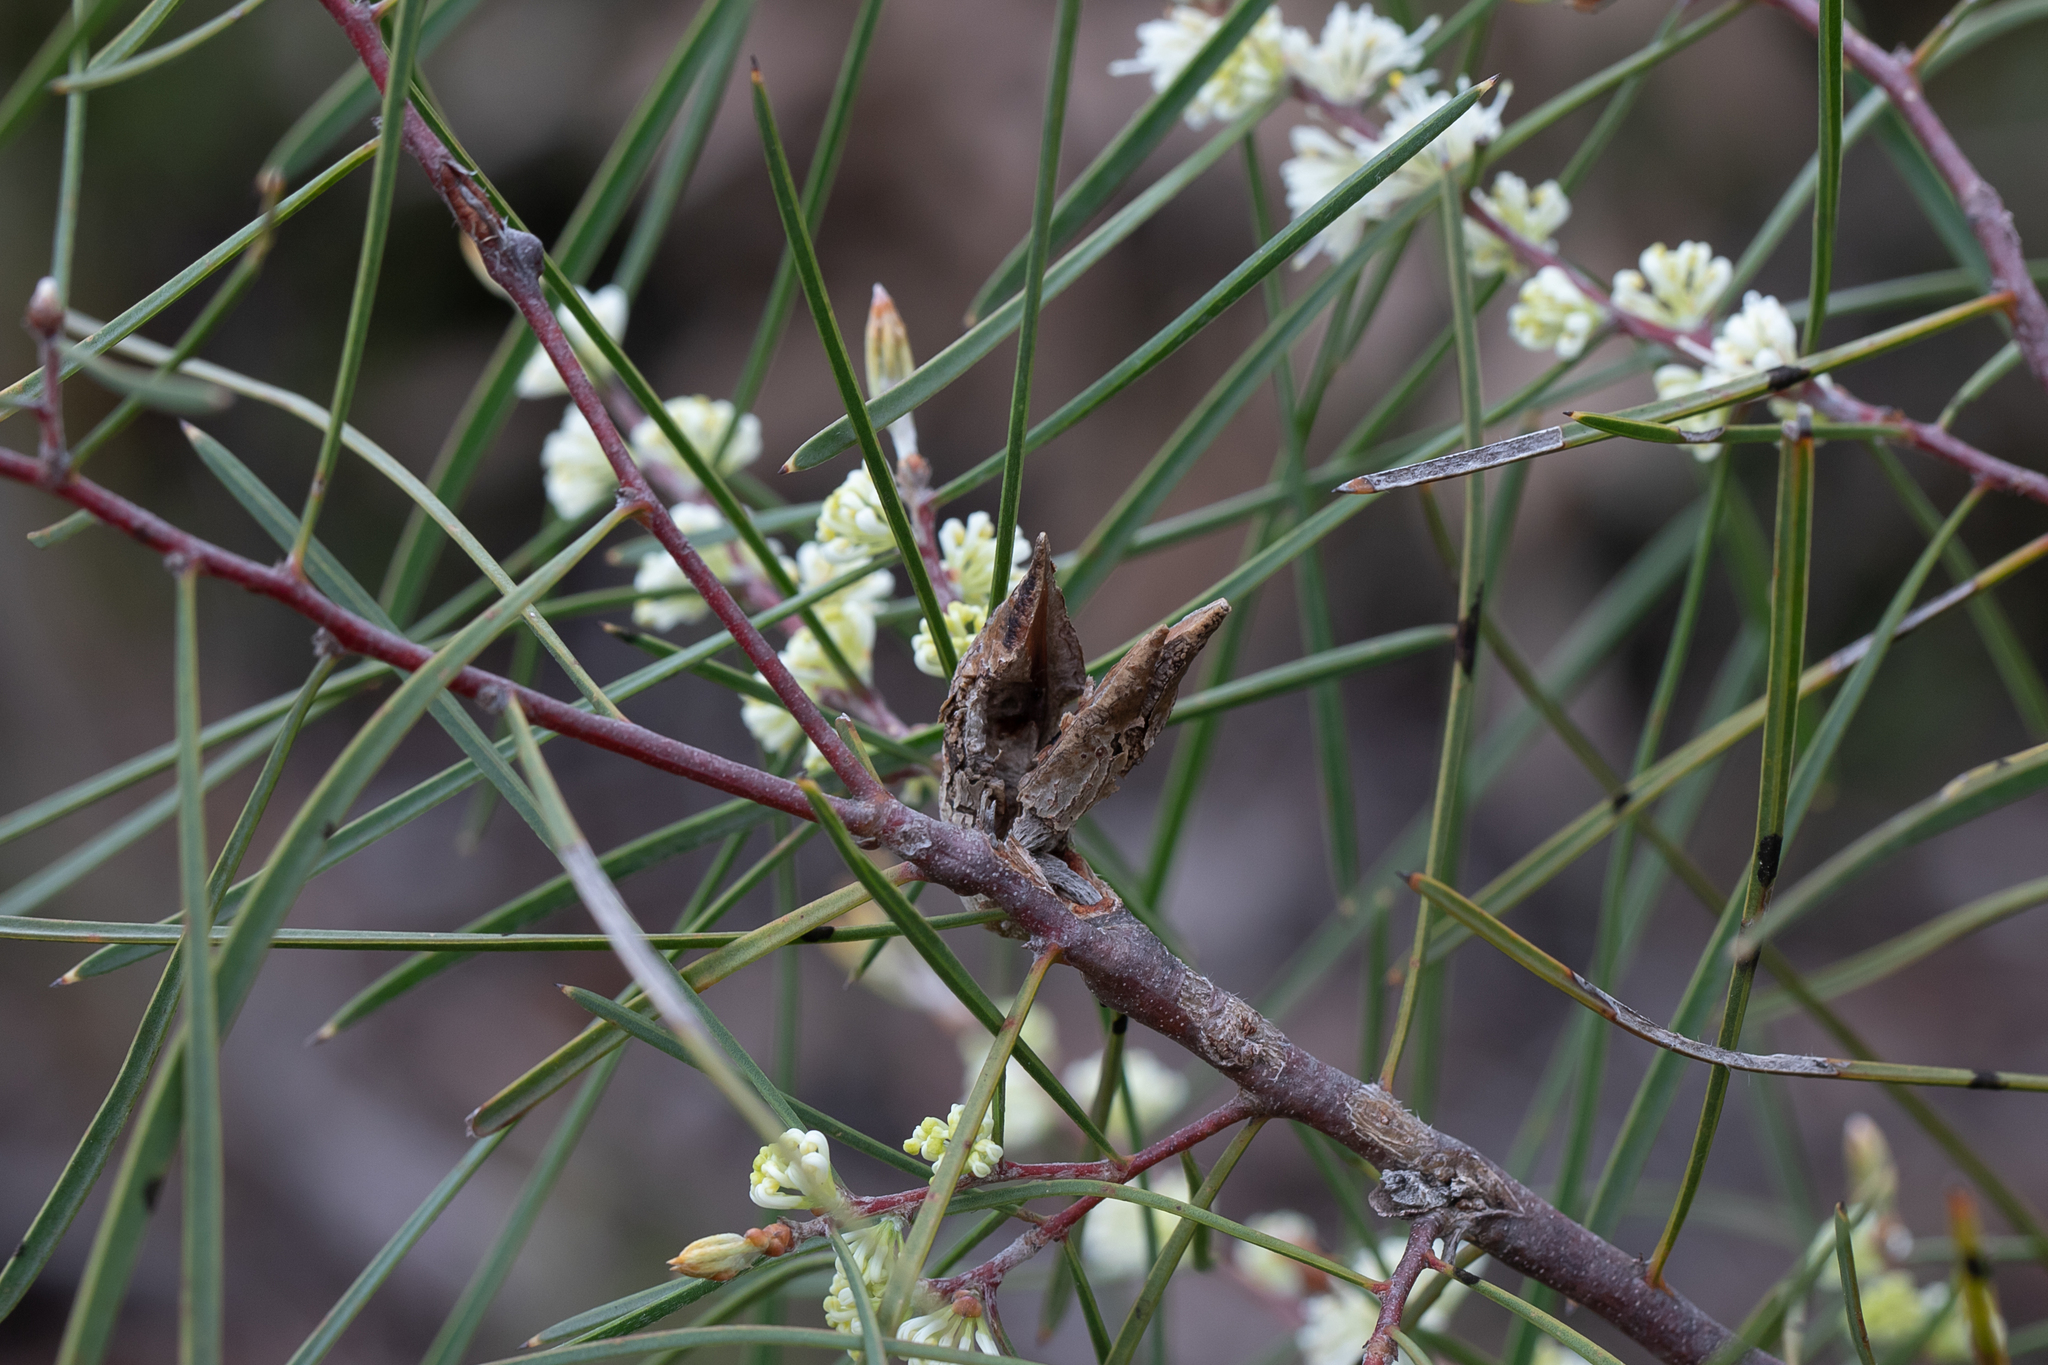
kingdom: Plantae
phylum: Tracheophyta
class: Magnoliopsida
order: Proteales
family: Proteaceae
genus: Hakea
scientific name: Hakea carinata
